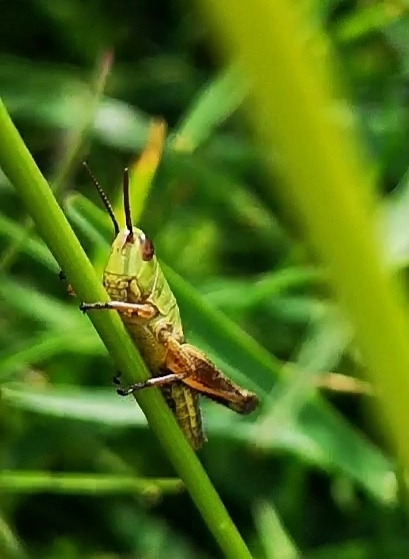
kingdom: Animalia
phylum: Arthropoda
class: Insecta
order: Orthoptera
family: Acrididae
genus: Pseudochorthippus
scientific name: Pseudochorthippus parallelus
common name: Meadow grasshopper
